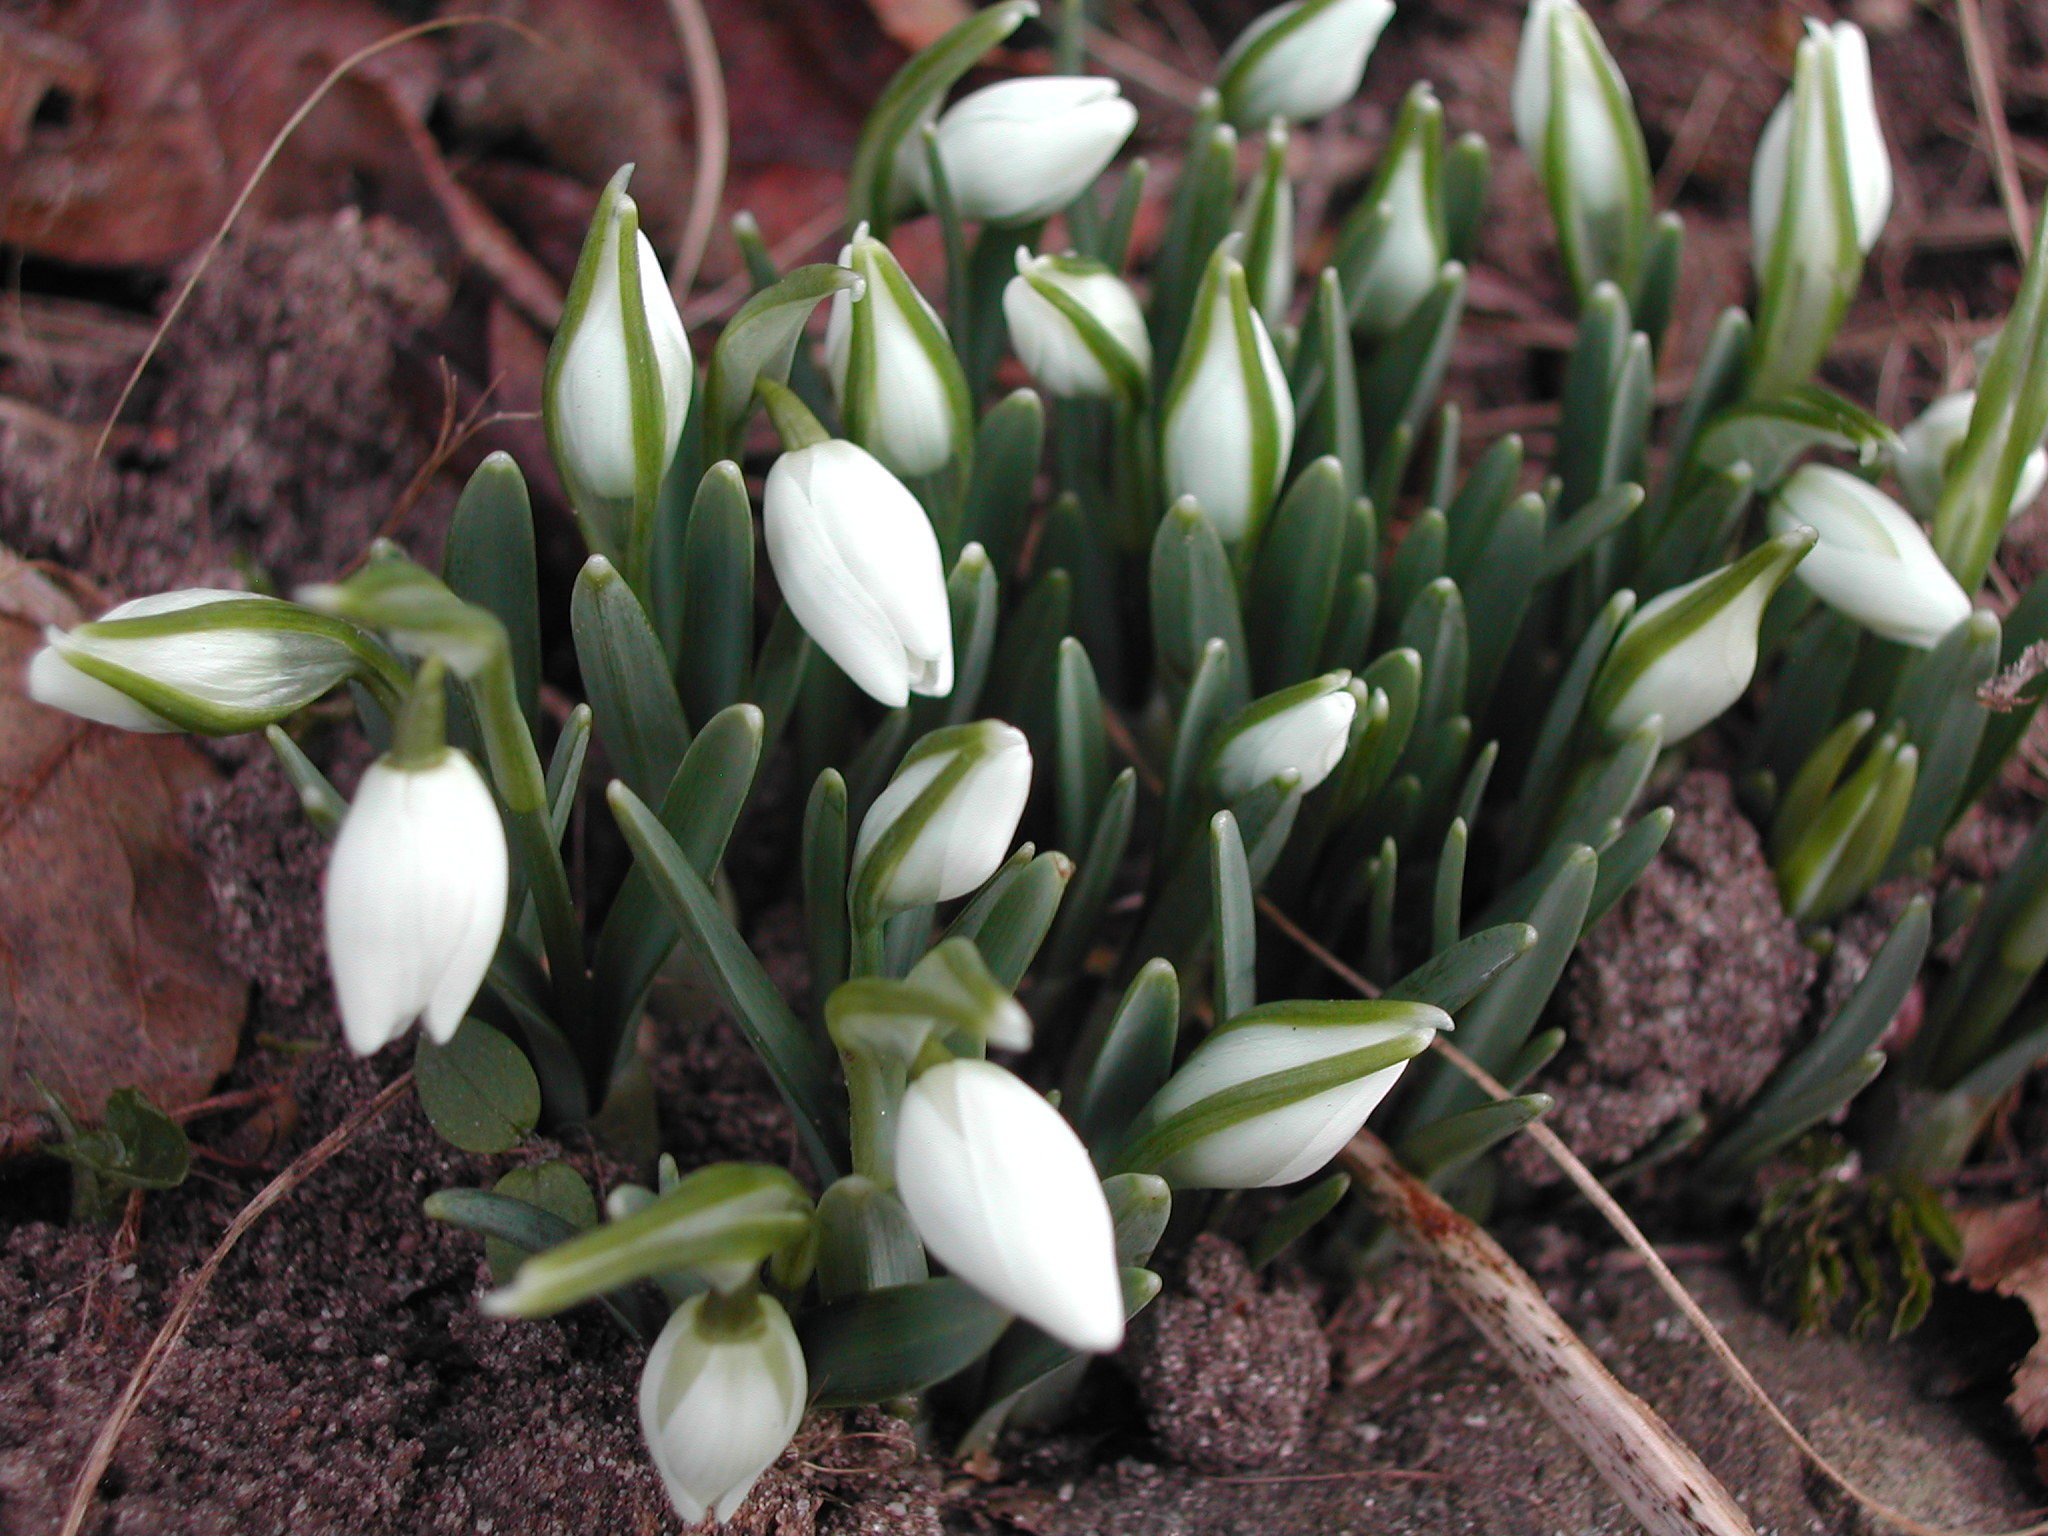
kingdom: Plantae
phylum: Tracheophyta
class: Liliopsida
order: Asparagales
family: Amaryllidaceae
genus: Galanthus
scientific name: Galanthus nivalis
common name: Snowdrop
